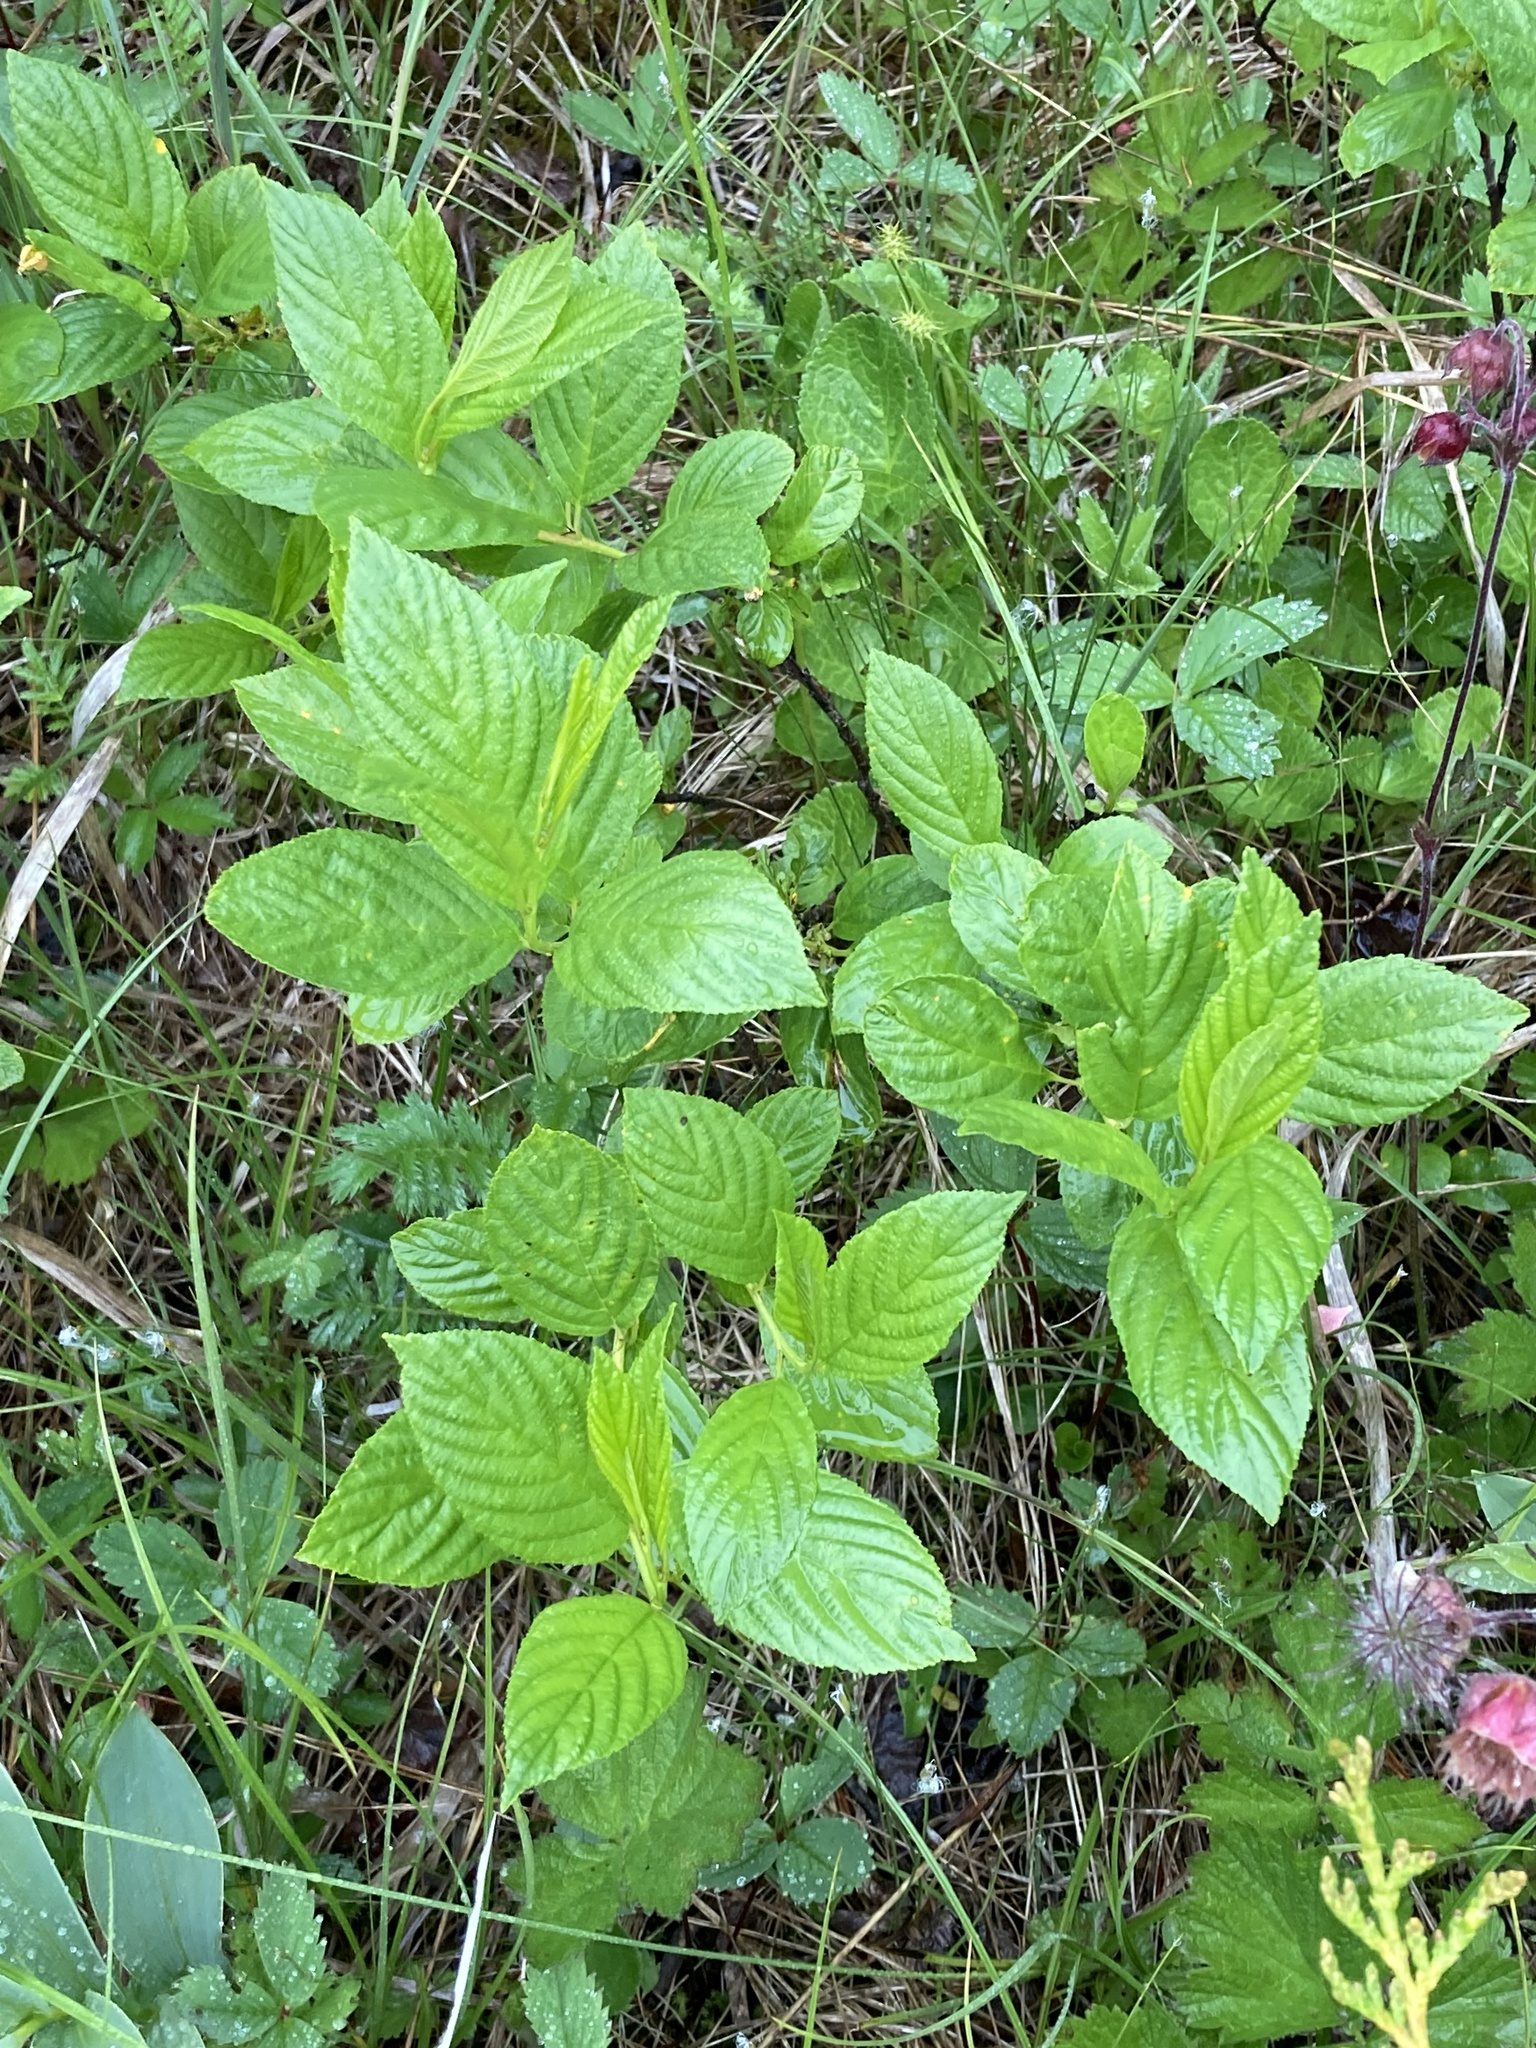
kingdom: Plantae
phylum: Tracheophyta
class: Magnoliopsida
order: Rosales
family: Rhamnaceae
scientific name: Rhamnaceae
